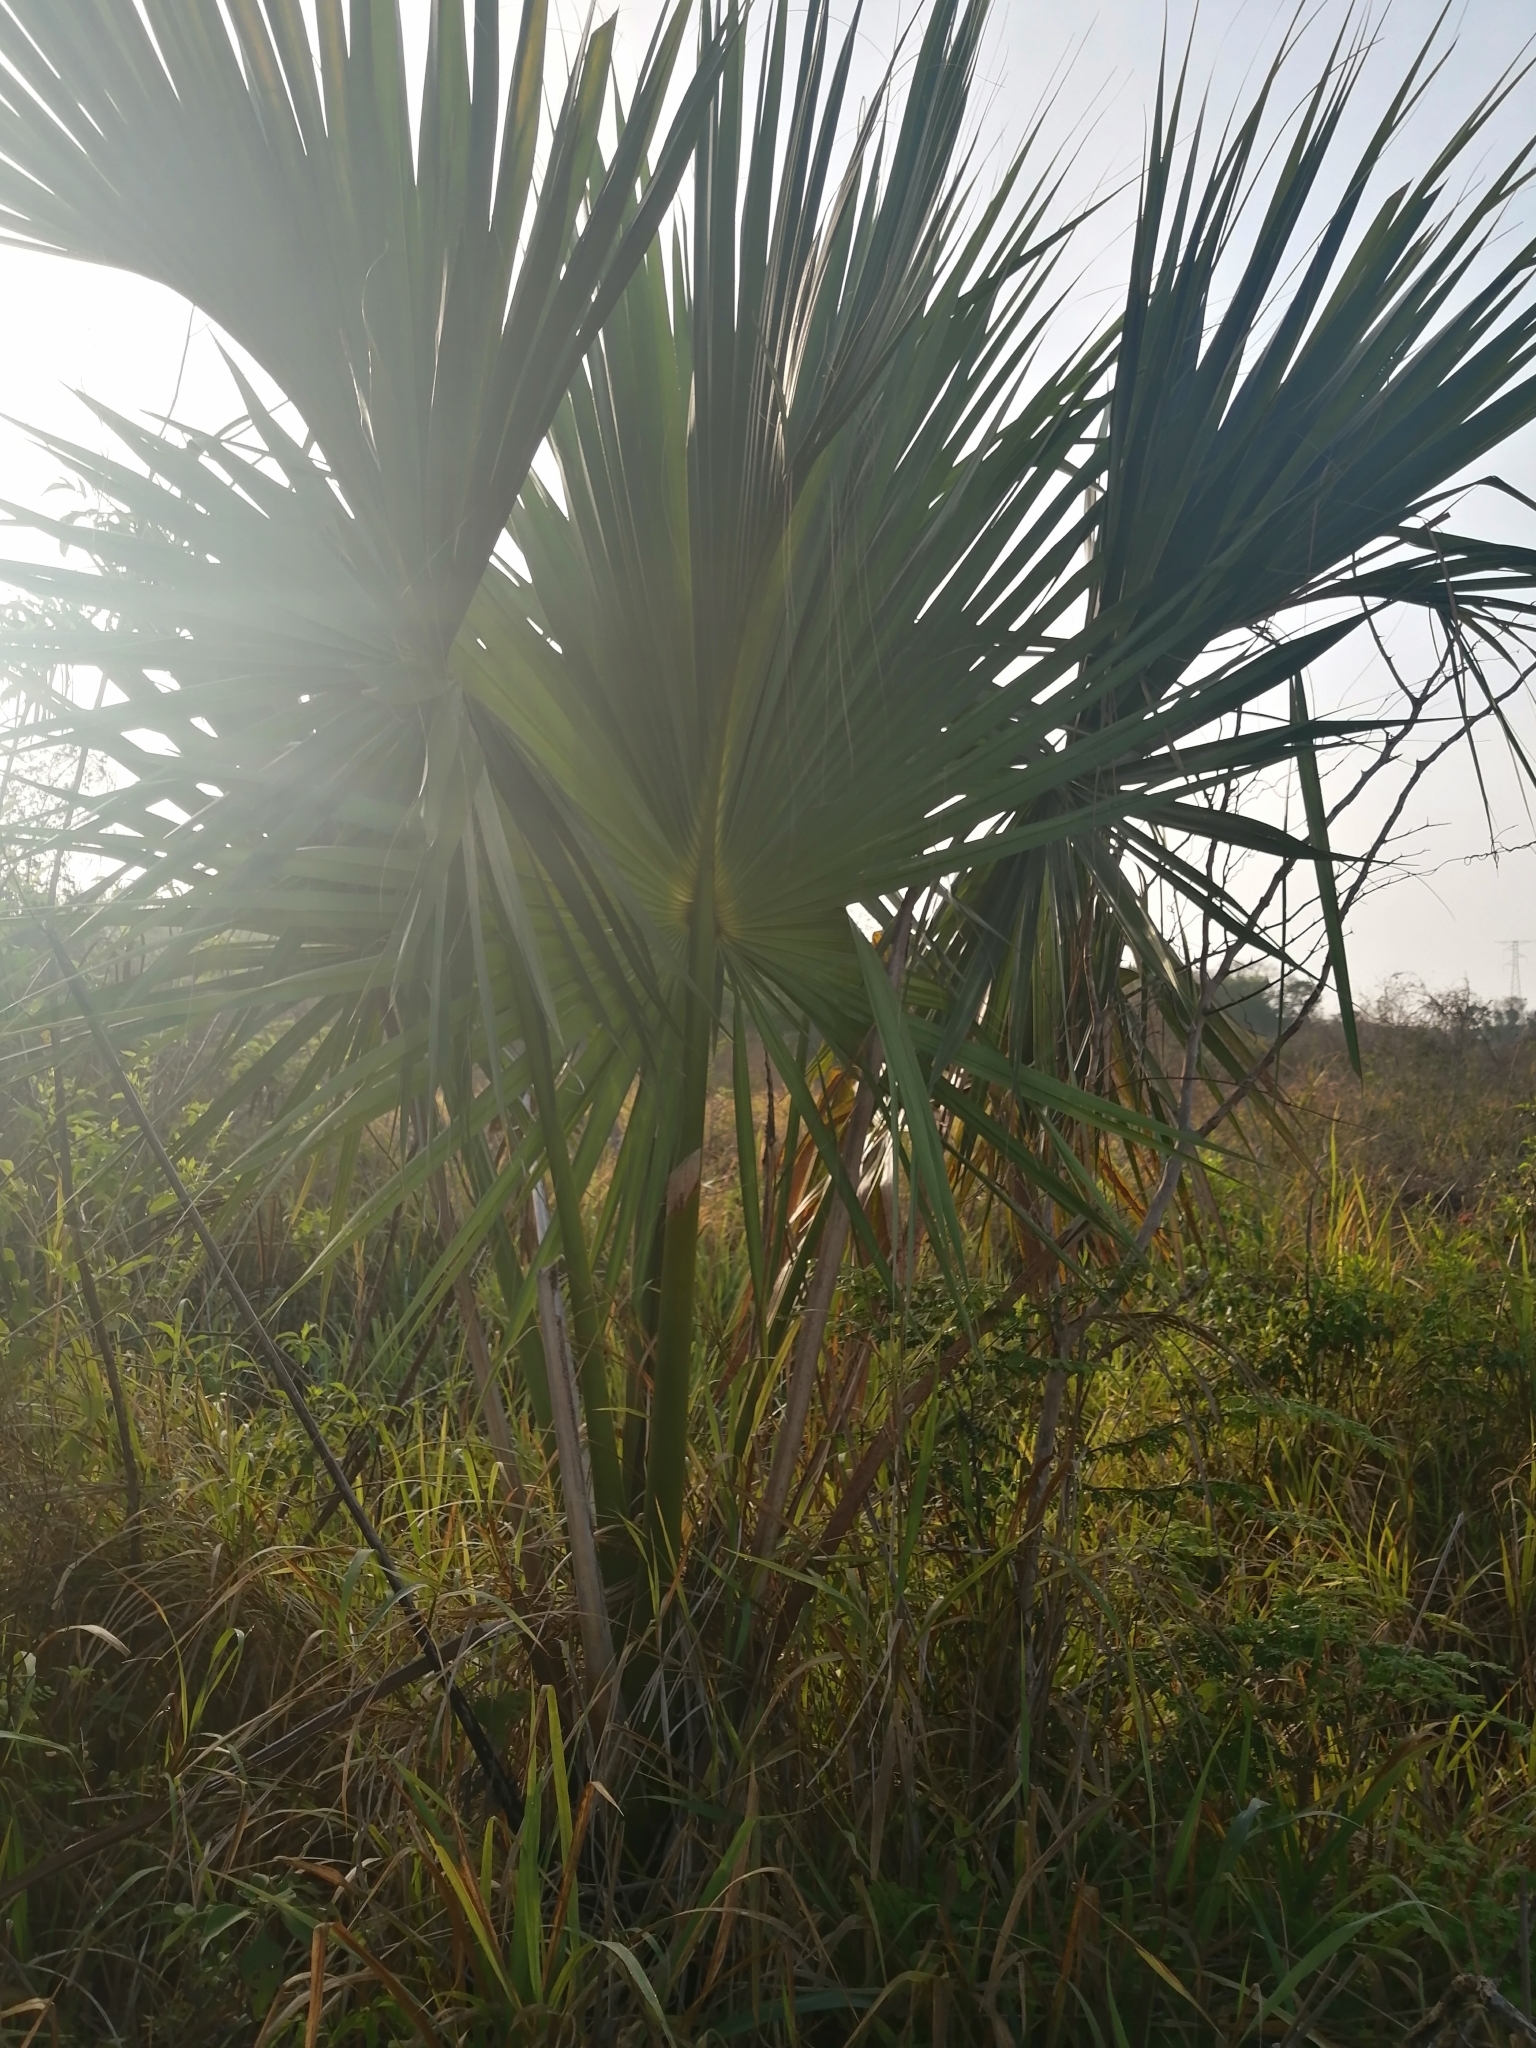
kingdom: Plantae
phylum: Tracheophyta
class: Liliopsida
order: Arecales
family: Arecaceae
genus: Sabal
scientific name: Sabal mexicana
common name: Texas palmetto
